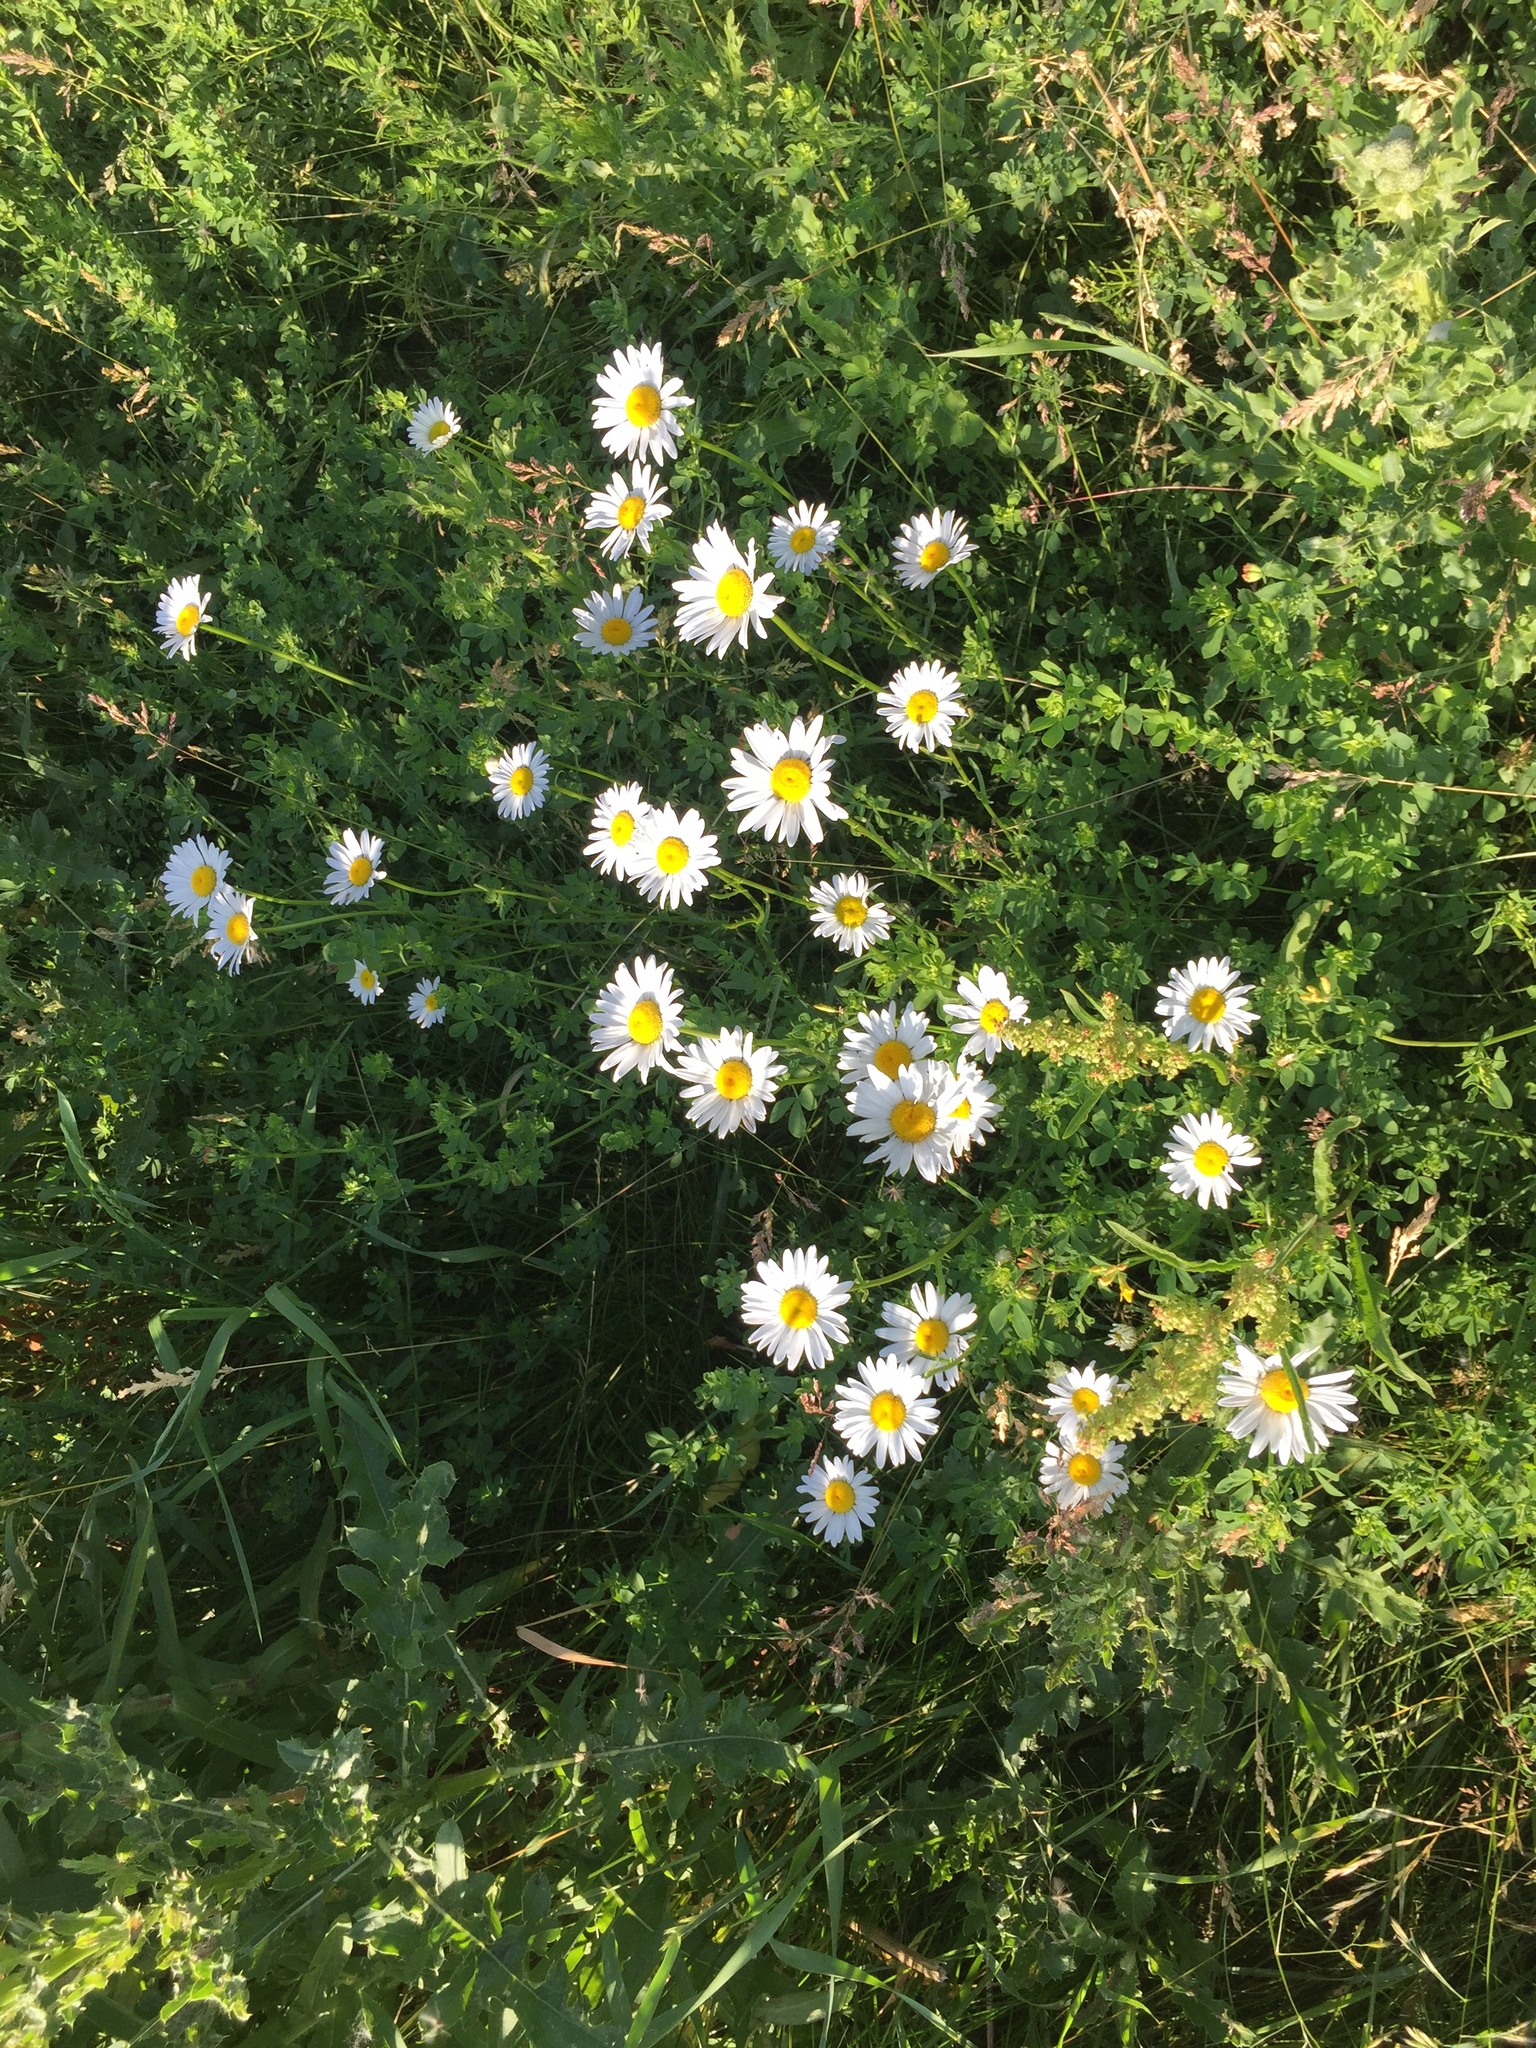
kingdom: Plantae
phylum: Tracheophyta
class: Magnoliopsida
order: Asterales
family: Asteraceae
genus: Leucanthemum
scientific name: Leucanthemum vulgare
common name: Oxeye daisy
